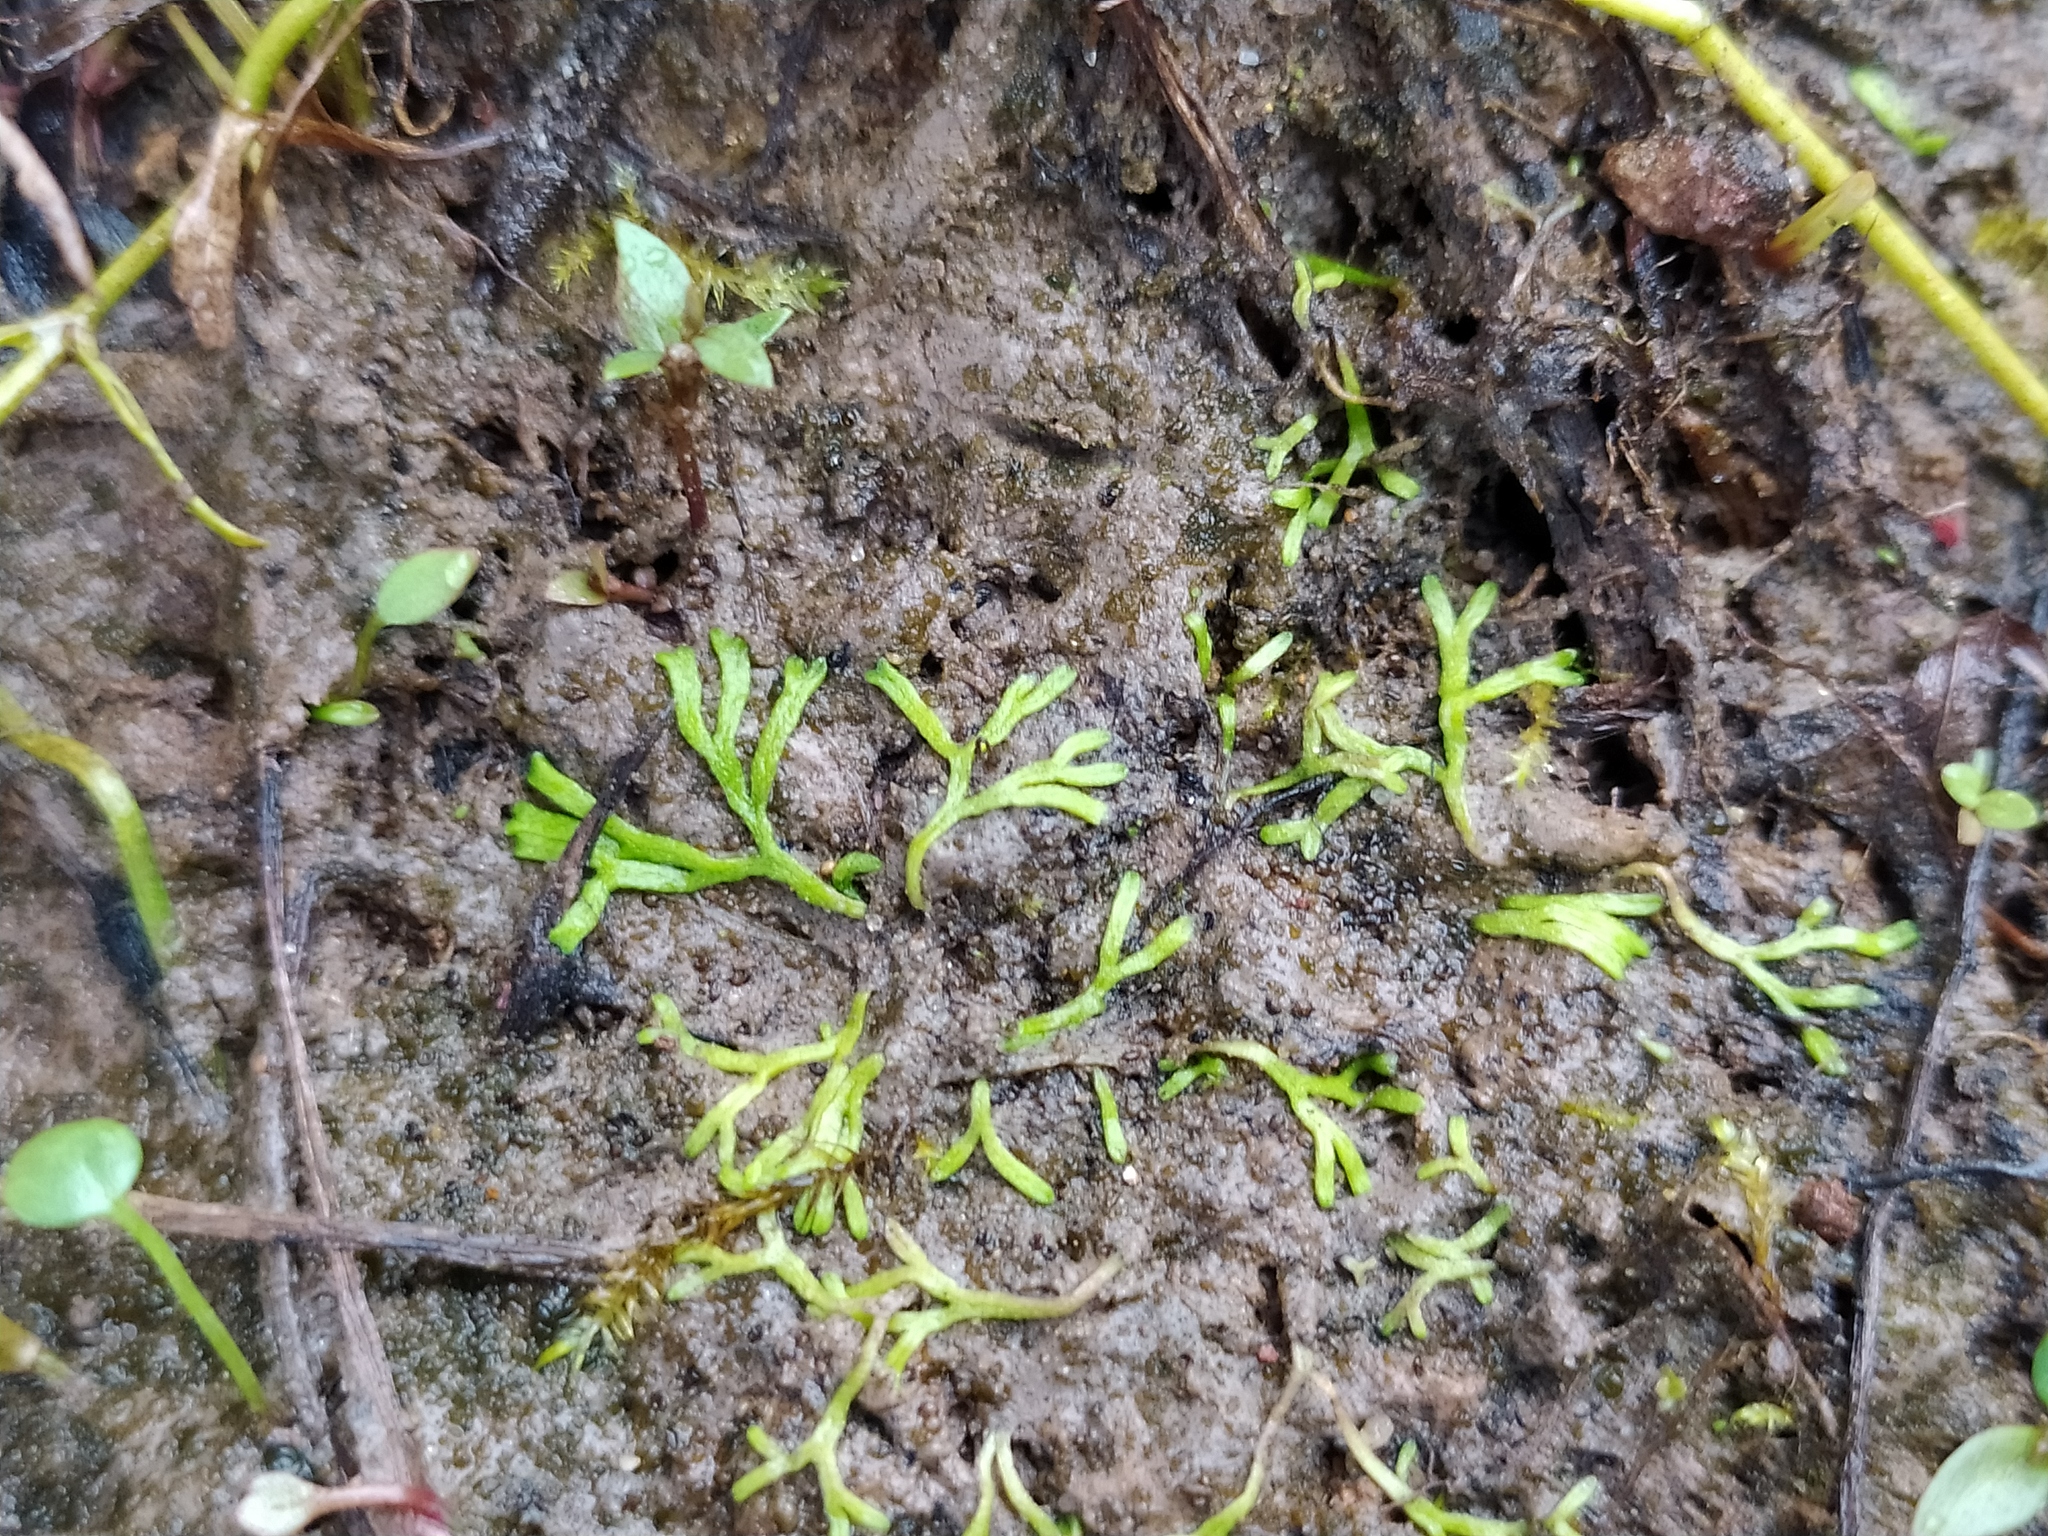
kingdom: Plantae
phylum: Marchantiophyta
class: Marchantiopsida
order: Marchantiales
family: Ricciaceae
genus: Riccia
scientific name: Riccia fluitans
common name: Floating crystalwort
